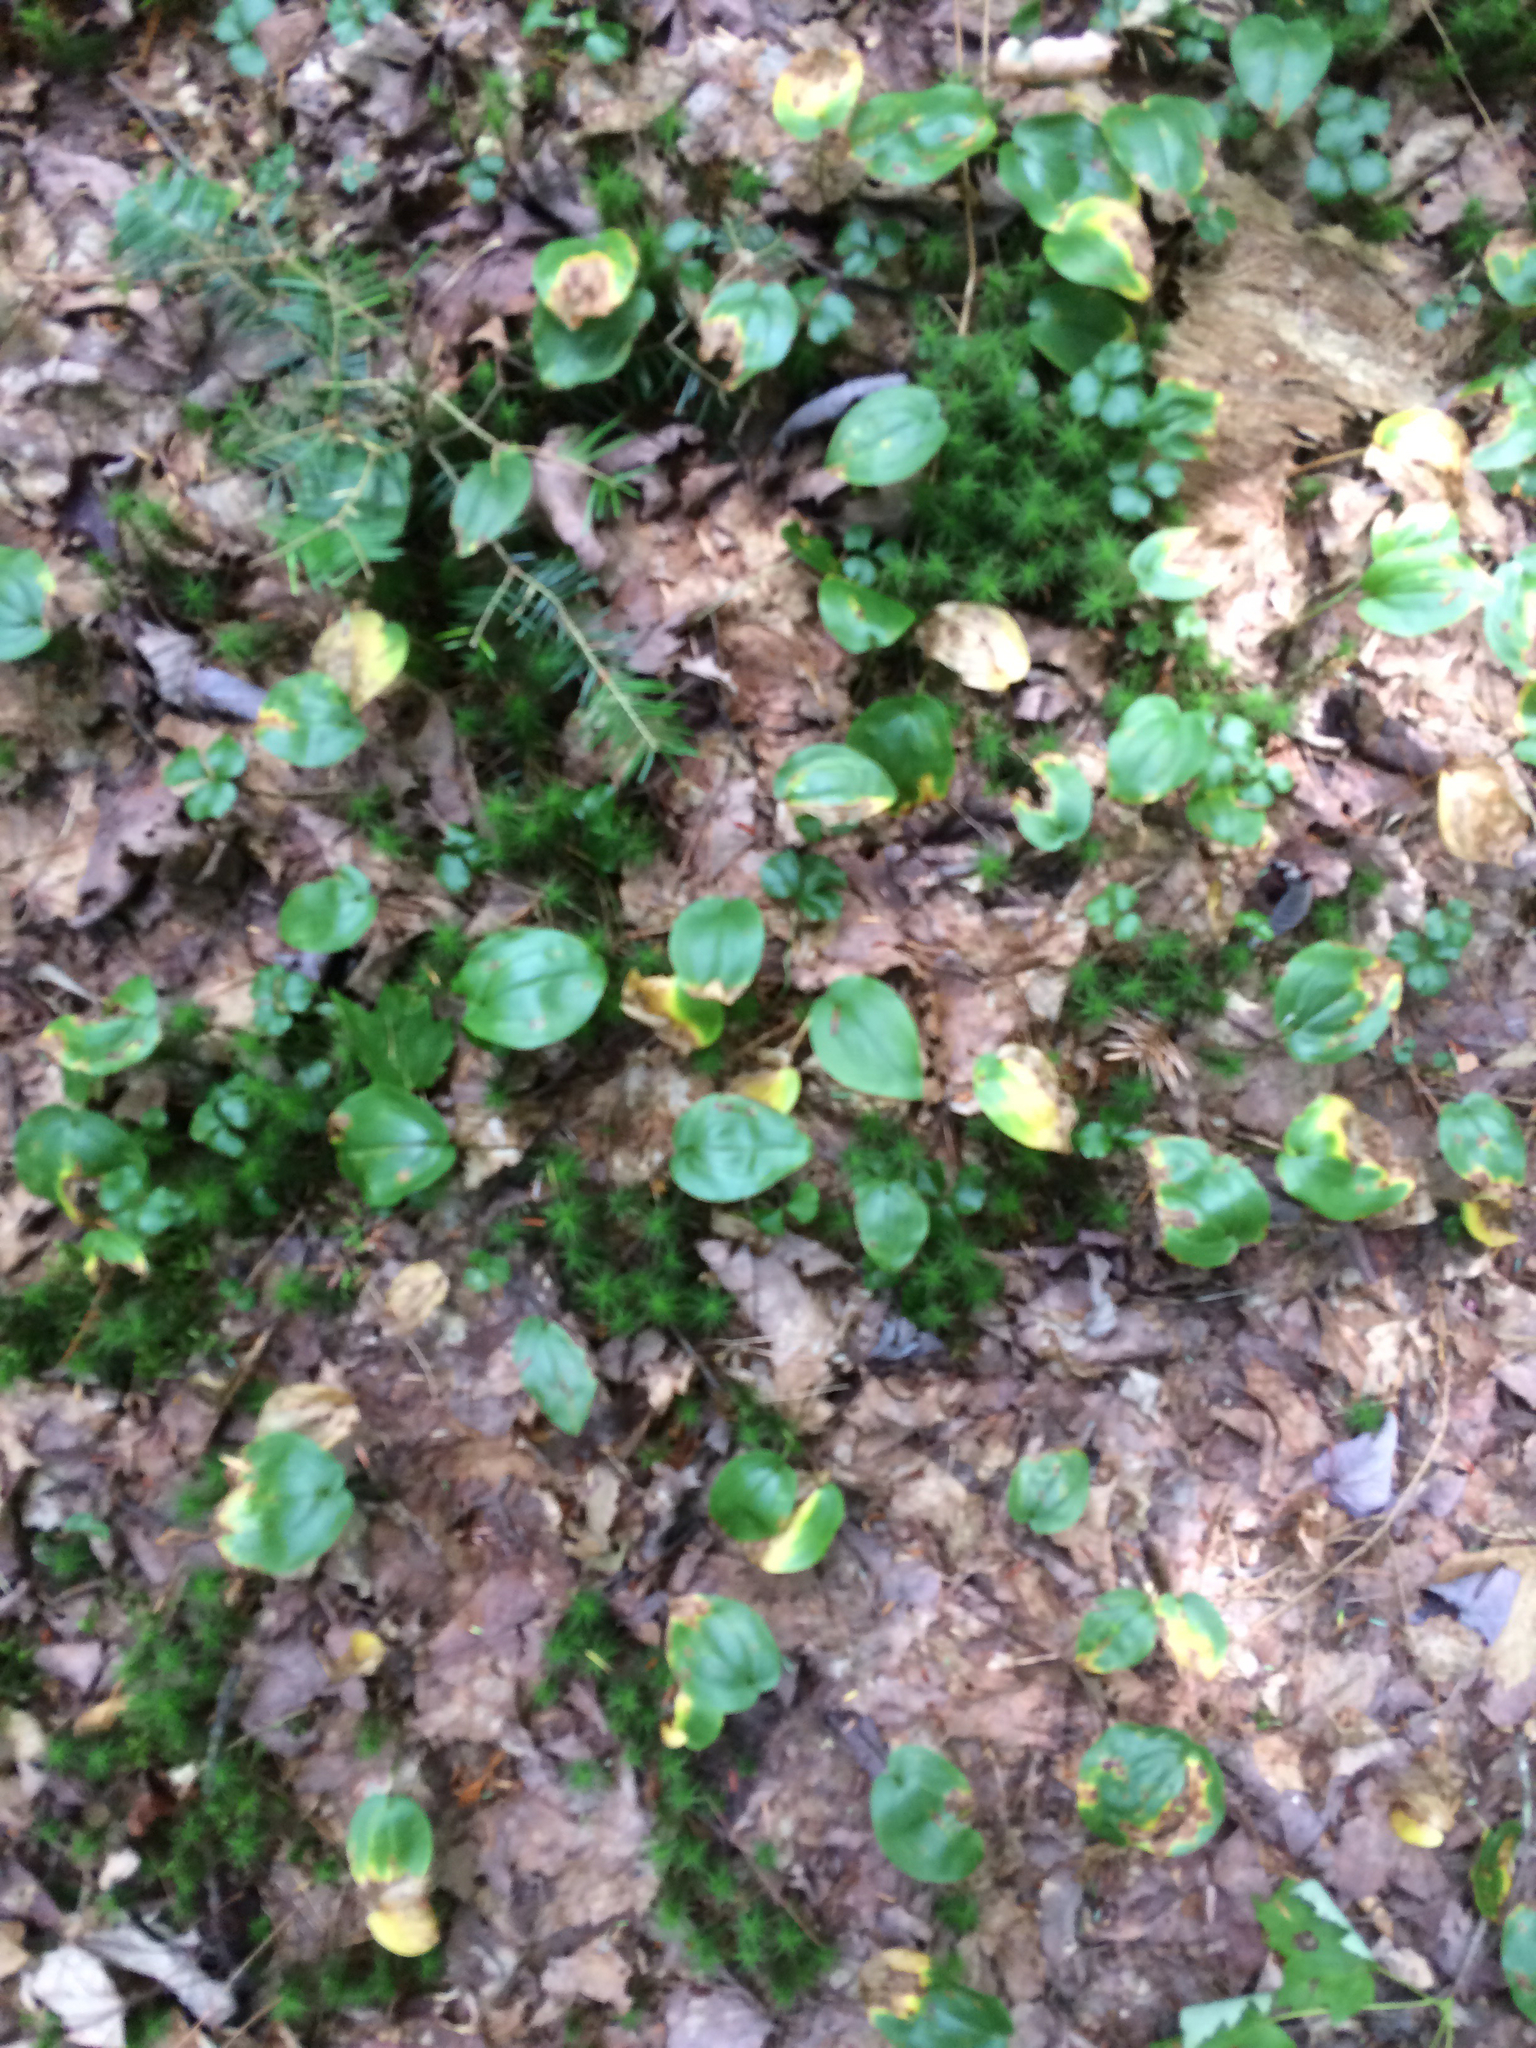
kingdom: Plantae
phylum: Tracheophyta
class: Liliopsida
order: Asparagales
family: Asparagaceae
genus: Maianthemum
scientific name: Maianthemum canadense
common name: False lily-of-the-valley
